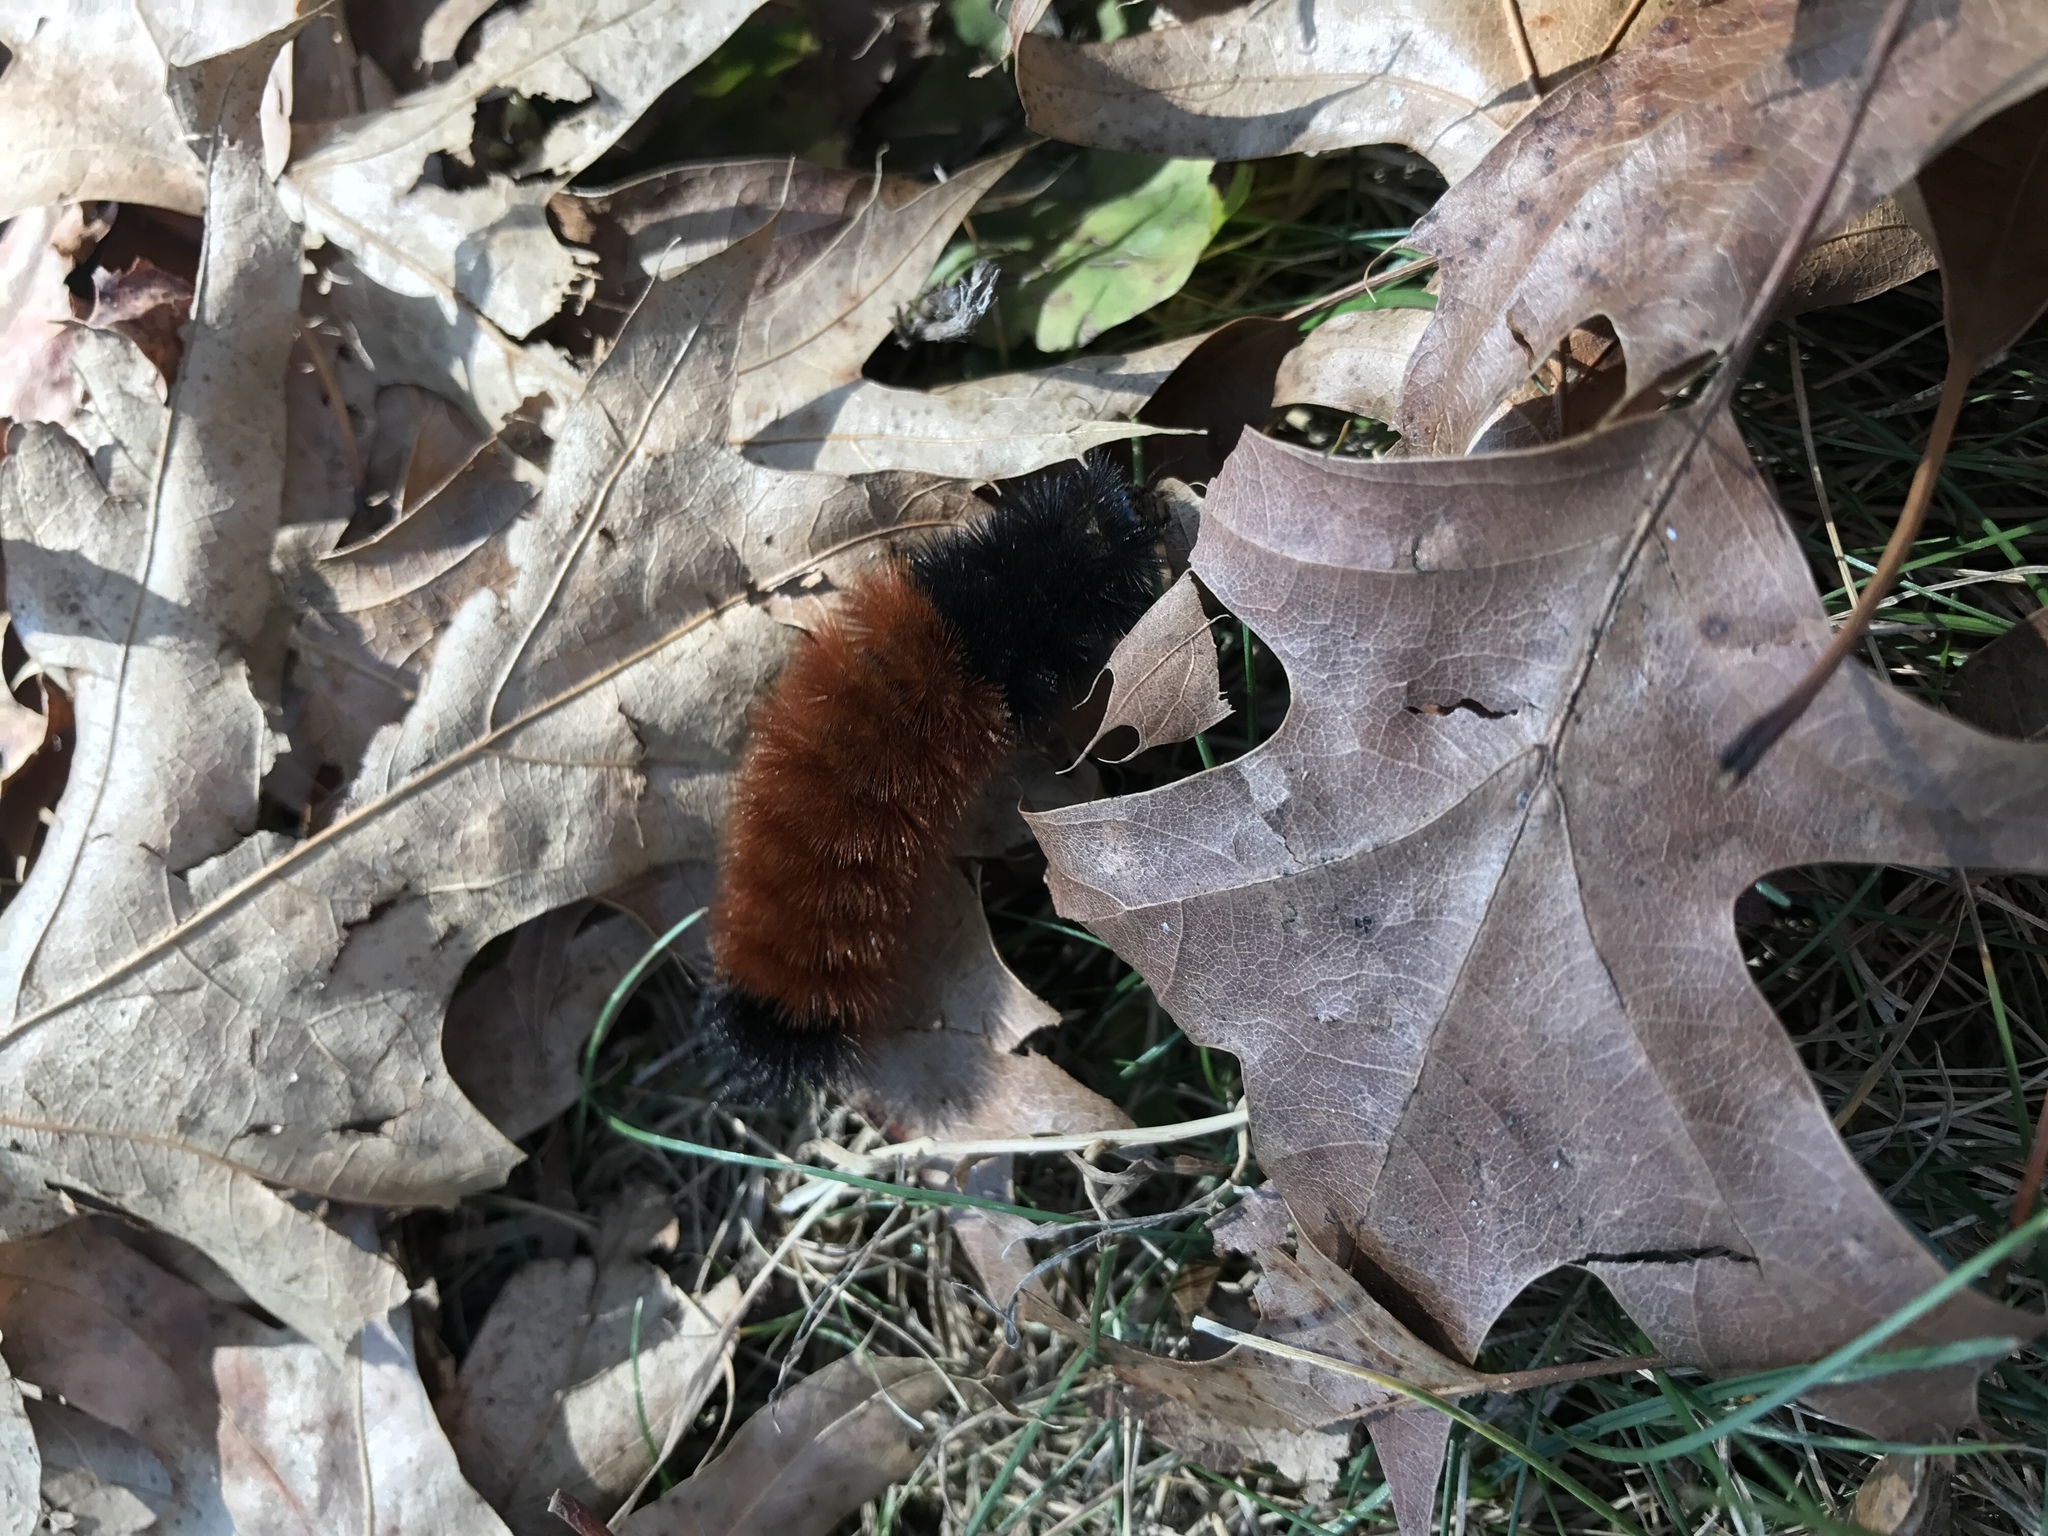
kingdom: Animalia
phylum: Arthropoda
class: Insecta
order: Lepidoptera
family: Erebidae
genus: Pyrrharctia
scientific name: Pyrrharctia isabella
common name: Isabella tiger moth
